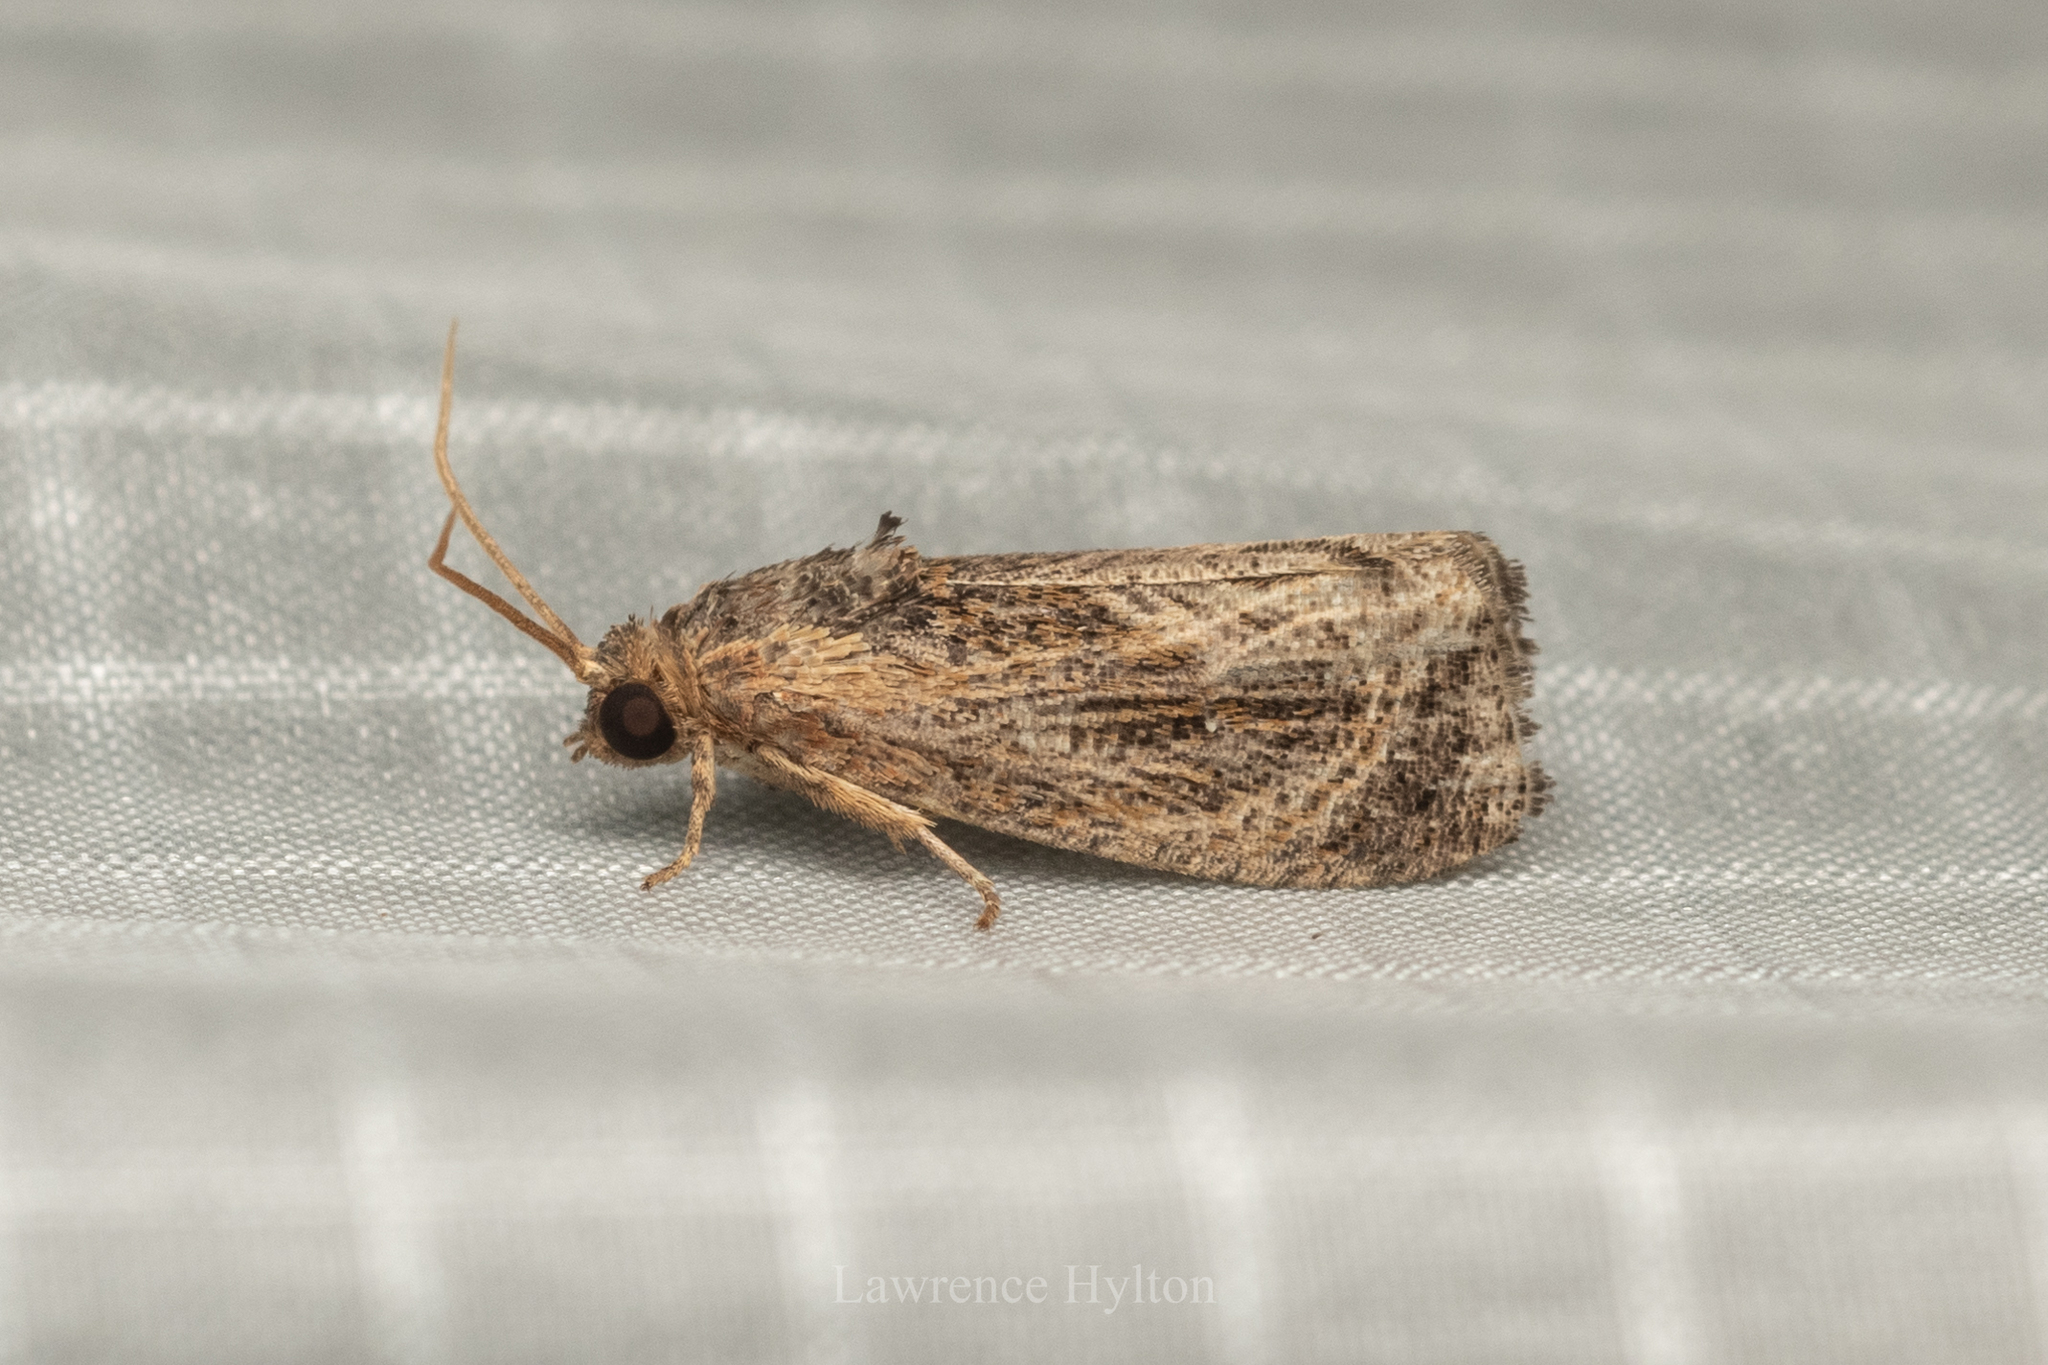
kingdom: Animalia
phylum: Arthropoda
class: Insecta
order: Lepidoptera
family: Tortricidae
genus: Cryptophlebia
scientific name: Cryptophlebia repletana
